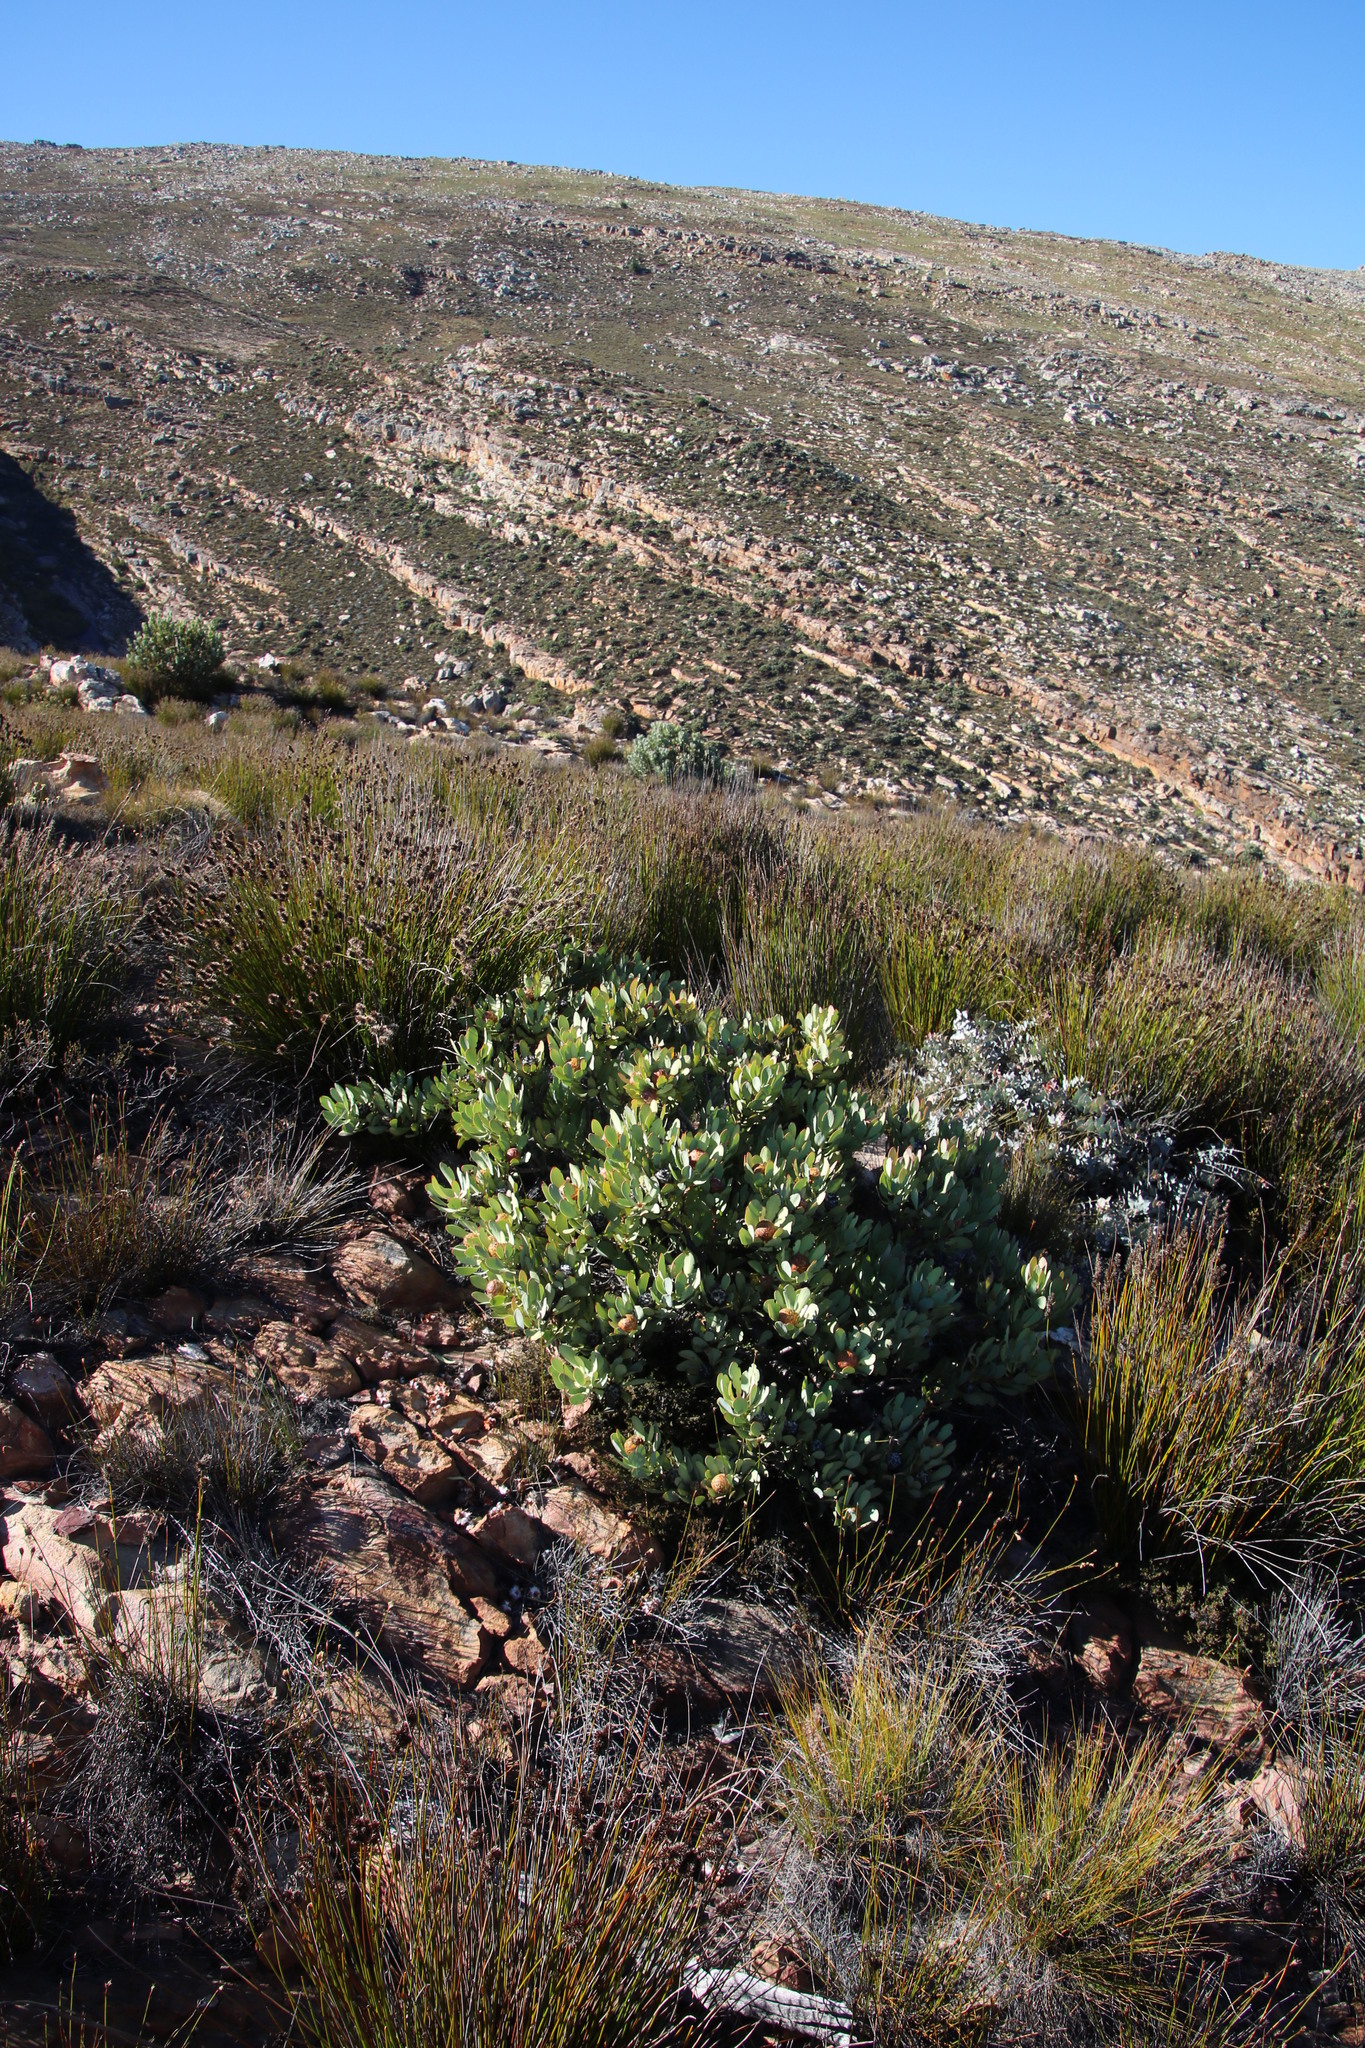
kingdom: Plantae
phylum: Tracheophyta
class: Magnoliopsida
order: Proteales
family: Proteaceae
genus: Leucadendron
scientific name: Leucadendron arcuatum
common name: Red-edge conebush
